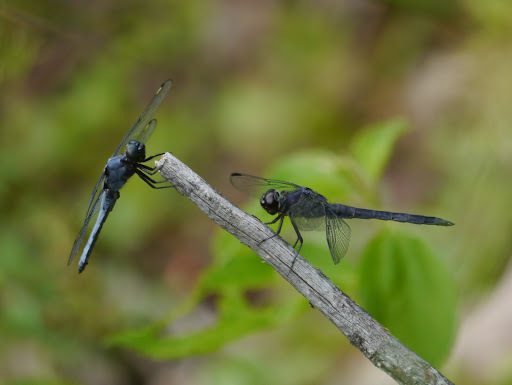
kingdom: Animalia
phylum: Arthropoda
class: Insecta
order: Odonata
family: Libellulidae
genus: Libellula
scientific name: Libellula incesta
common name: Slaty skimmer
